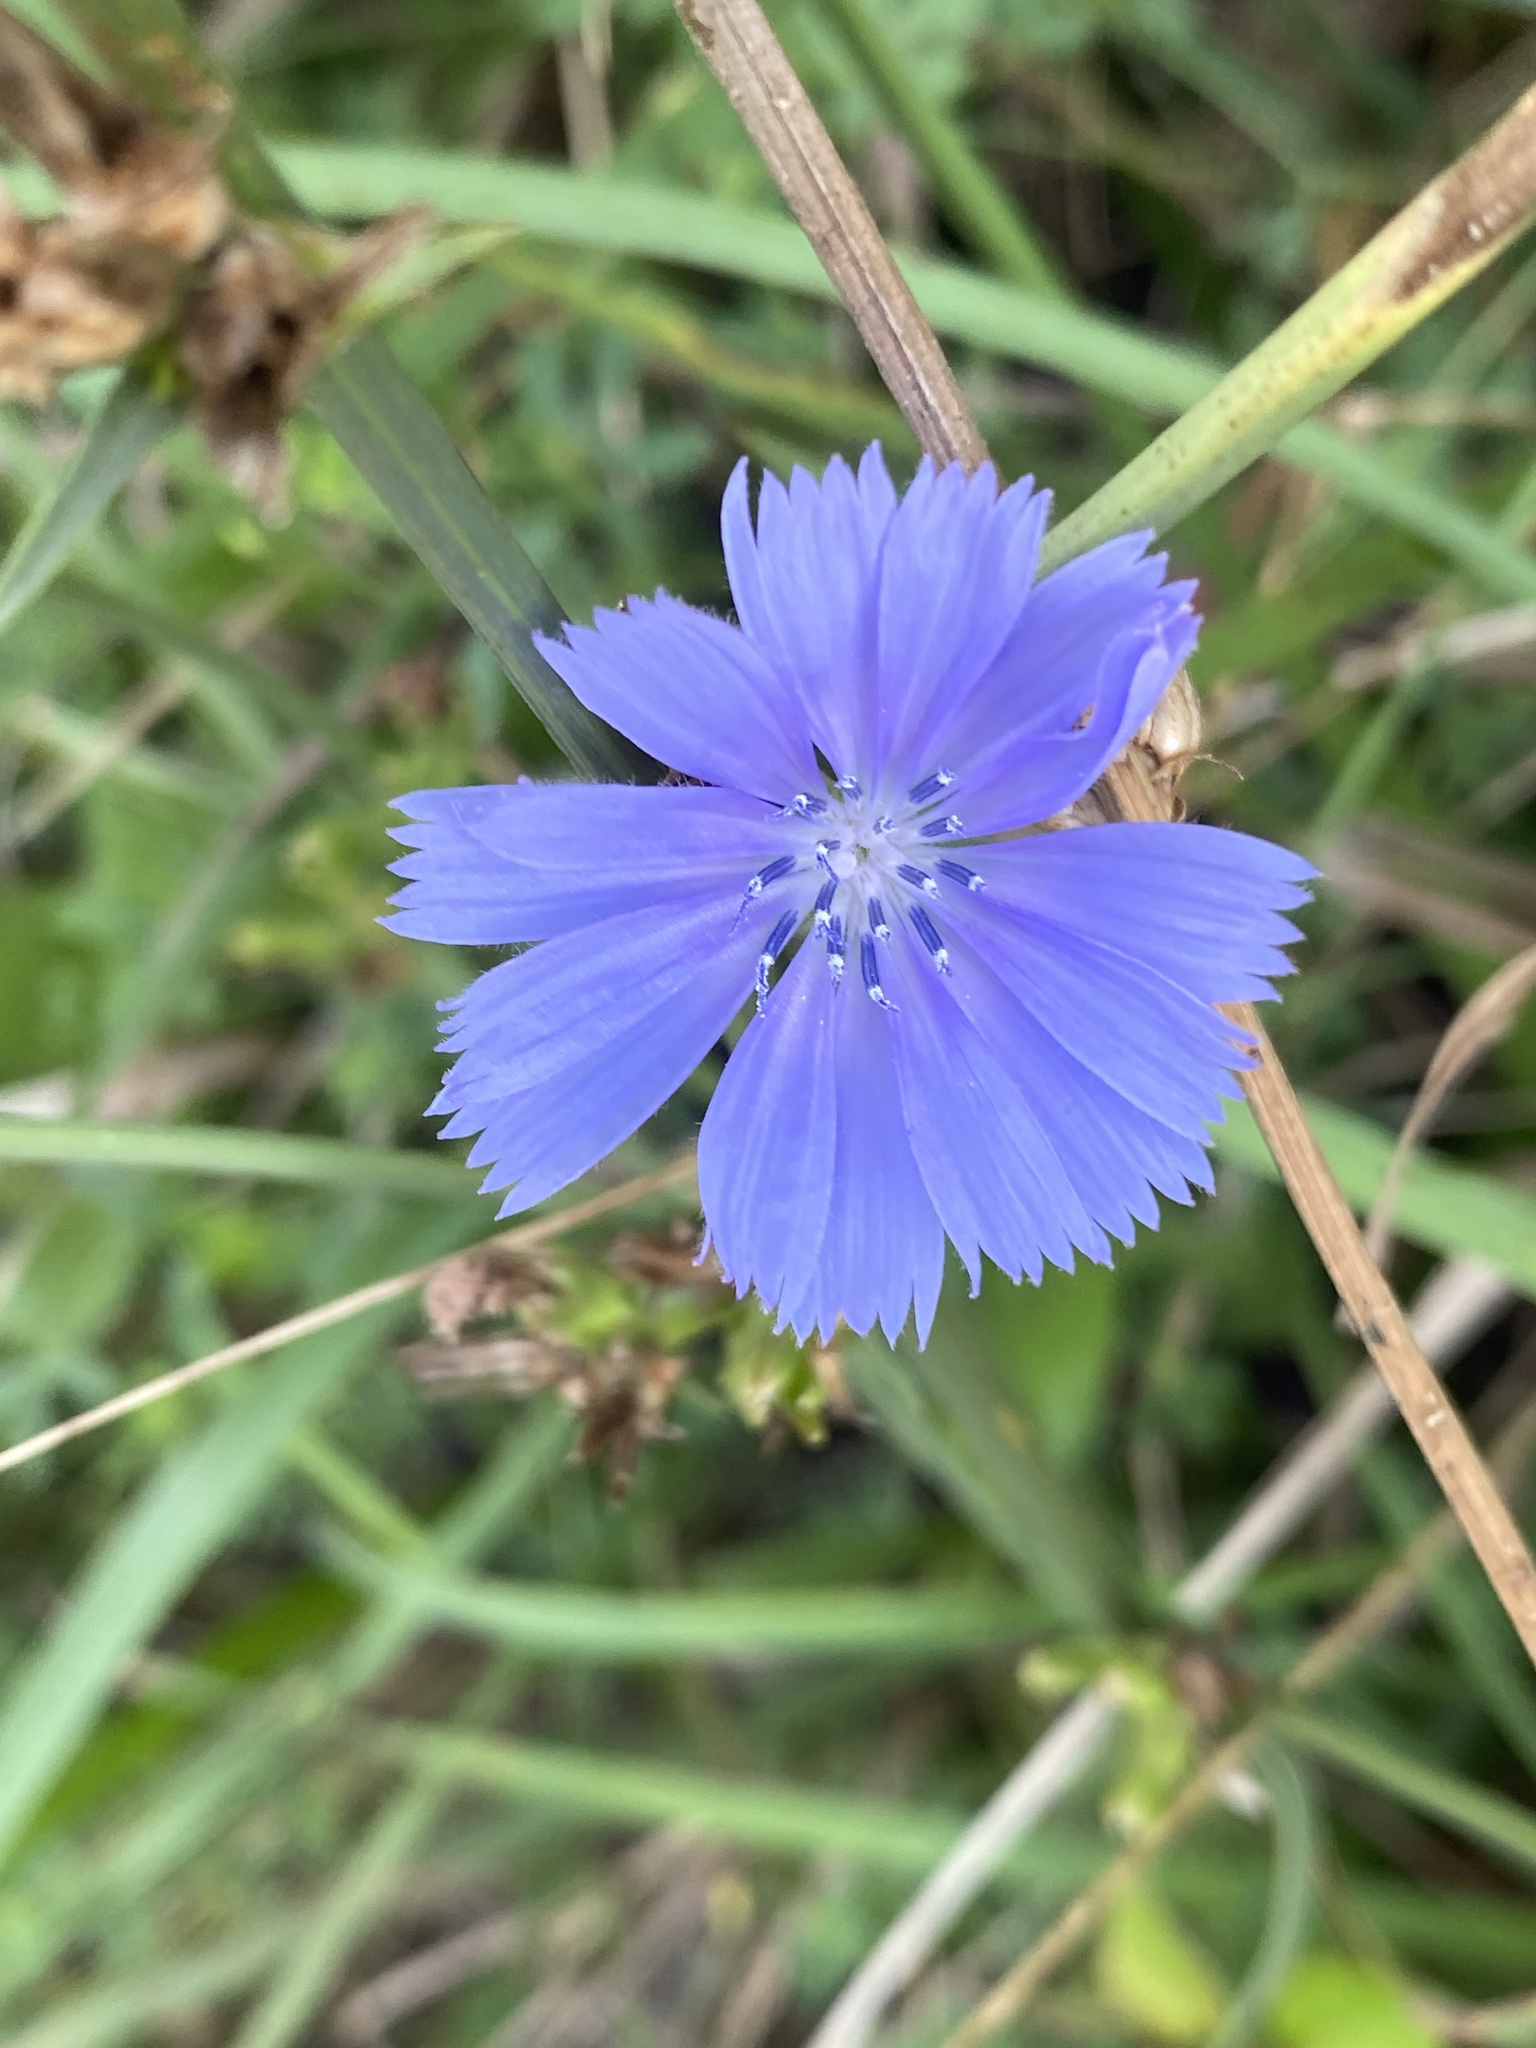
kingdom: Plantae
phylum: Tracheophyta
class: Magnoliopsida
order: Asterales
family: Asteraceae
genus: Cichorium
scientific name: Cichorium intybus
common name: Chicory
